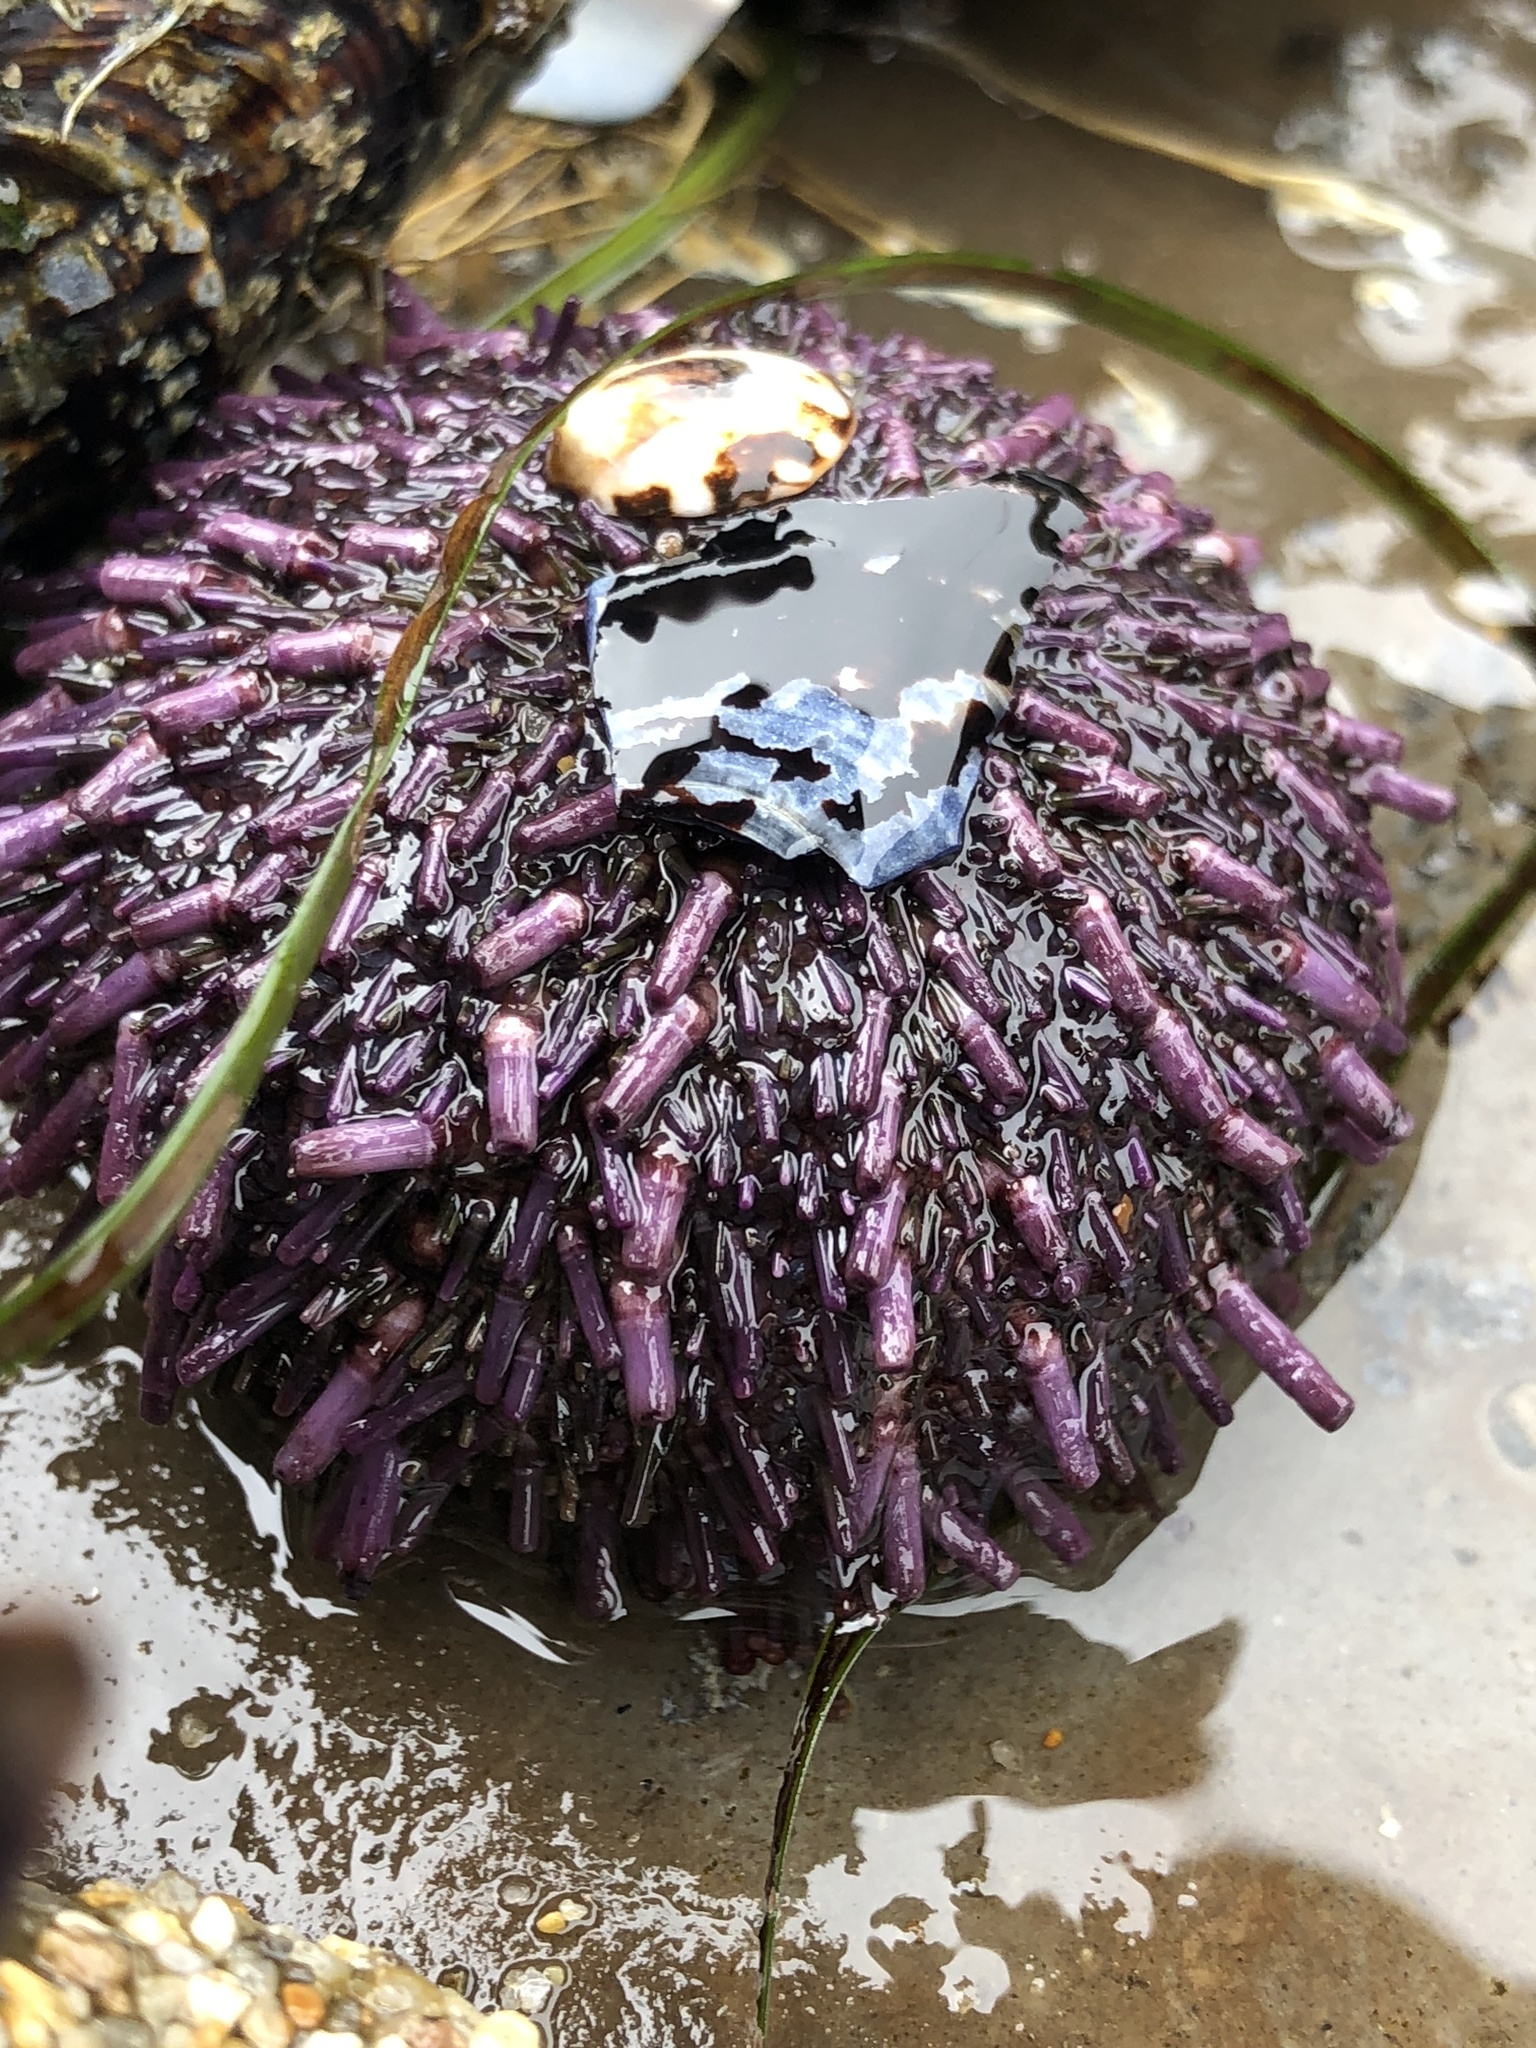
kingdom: Animalia
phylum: Echinodermata
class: Echinoidea
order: Camarodonta
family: Strongylocentrotidae
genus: Strongylocentrotus
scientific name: Strongylocentrotus purpuratus
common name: Purple sea urchin
